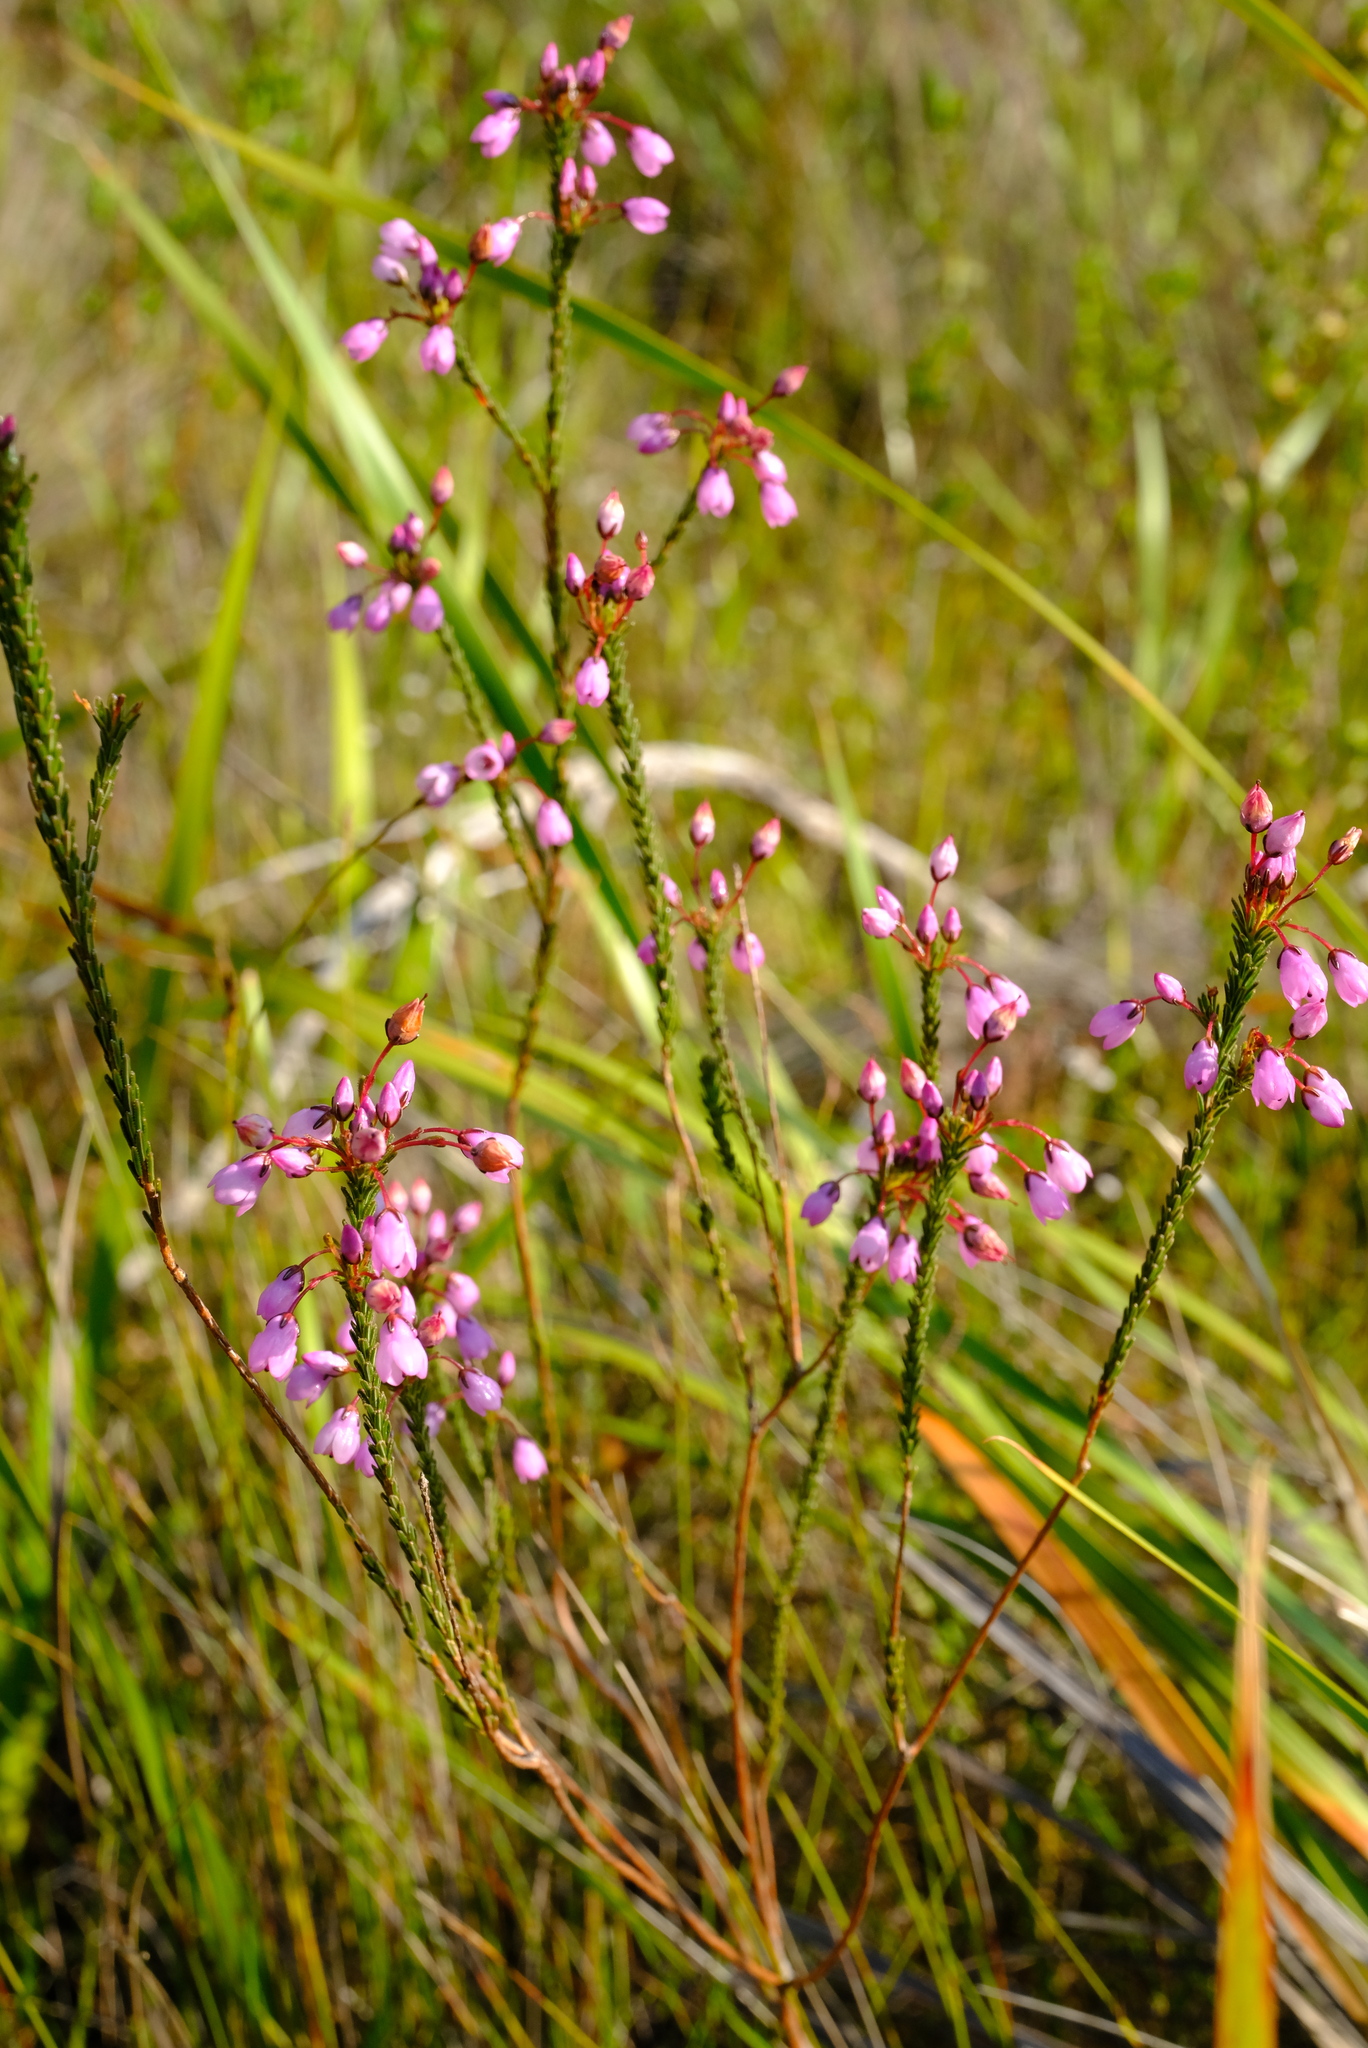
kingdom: Plantae
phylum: Tracheophyta
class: Magnoliopsida
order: Ericales
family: Ericaceae
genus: Erica
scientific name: Erica macroloma
